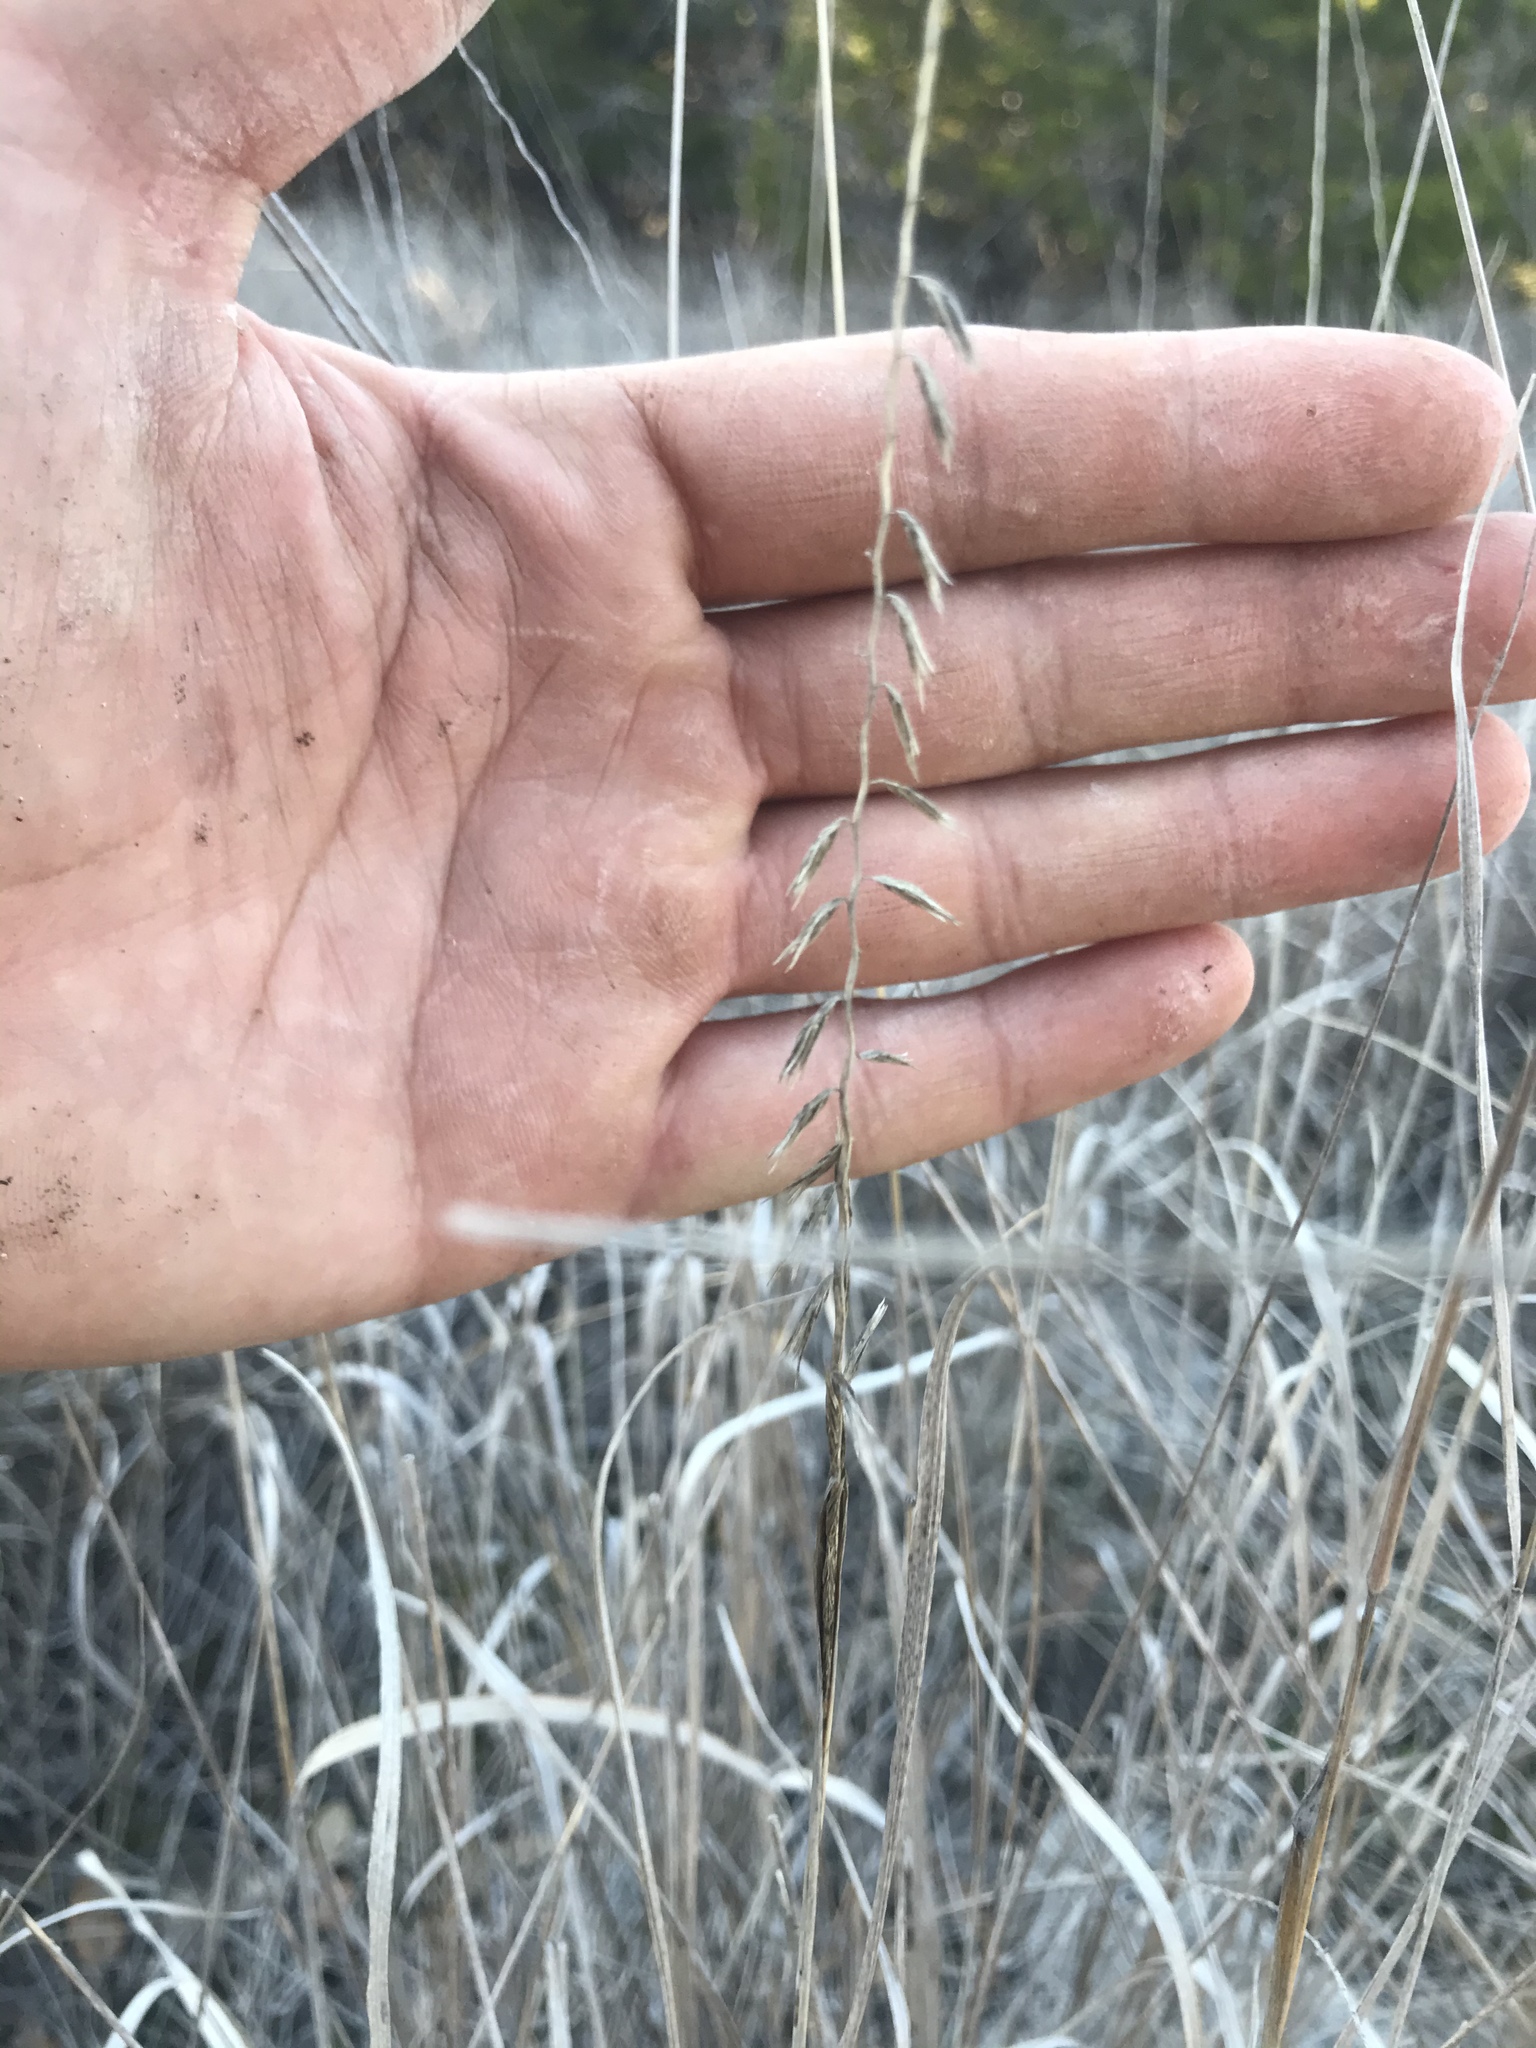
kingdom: Plantae
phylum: Tracheophyta
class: Liliopsida
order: Poales
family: Poaceae
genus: Bouteloua
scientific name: Bouteloua curtipendula
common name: Side-oats grama
